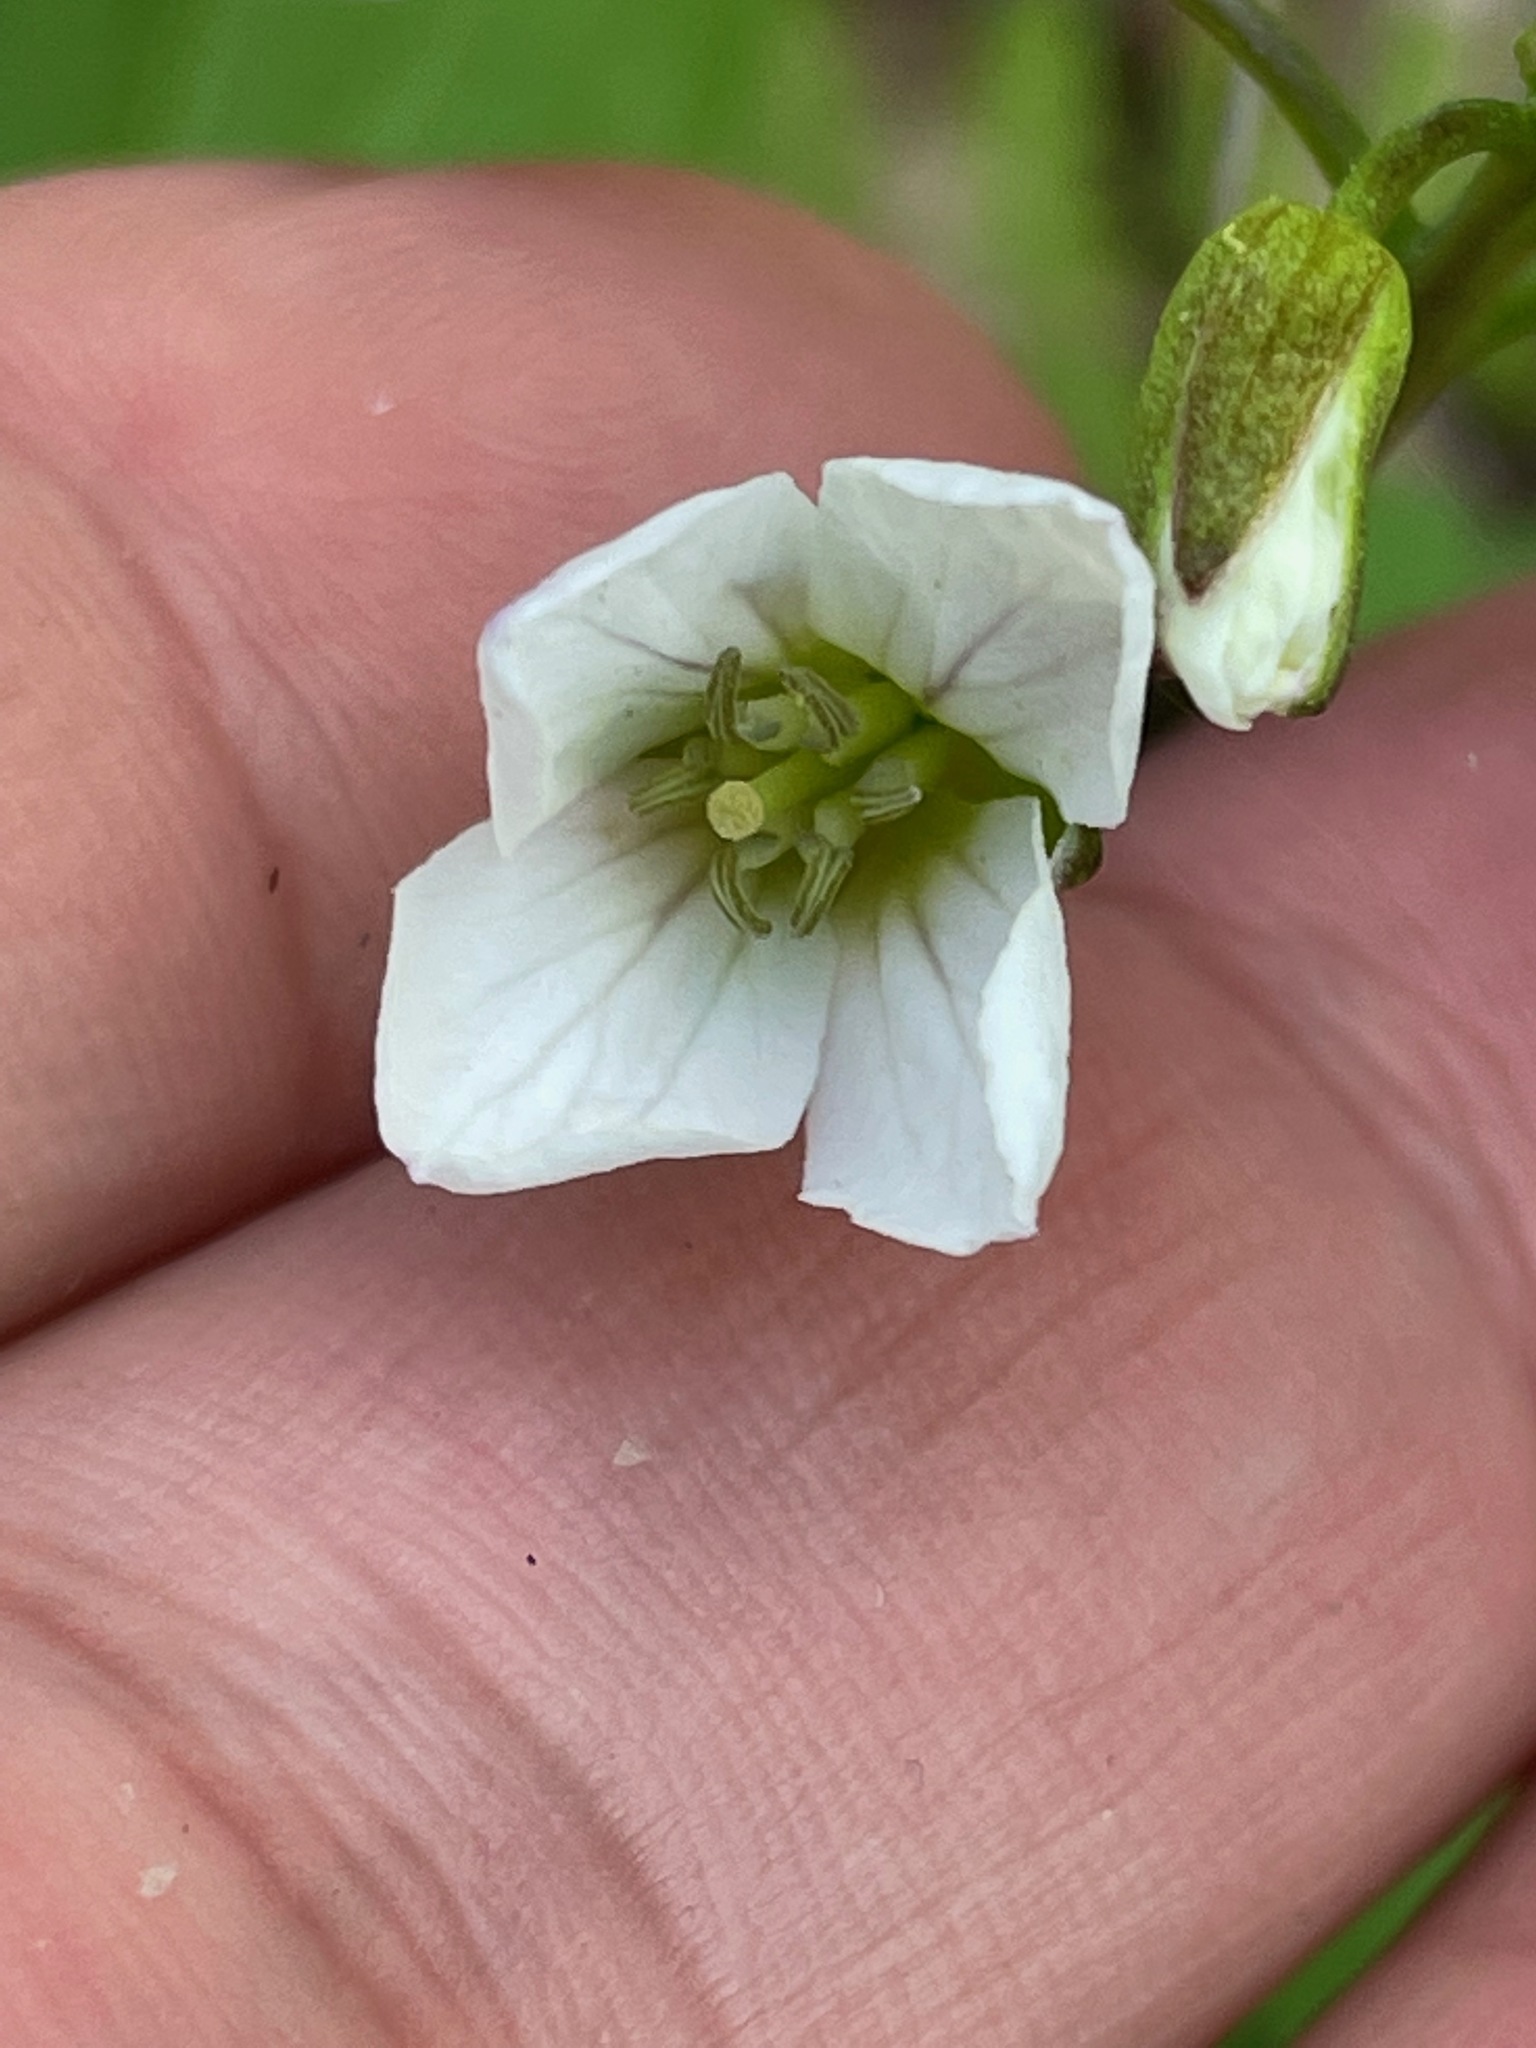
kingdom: Plantae
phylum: Tracheophyta
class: Magnoliopsida
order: Brassicales
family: Brassicaceae
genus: Cardamine
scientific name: Cardamine diphylla
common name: Broad-leaved toothwort
